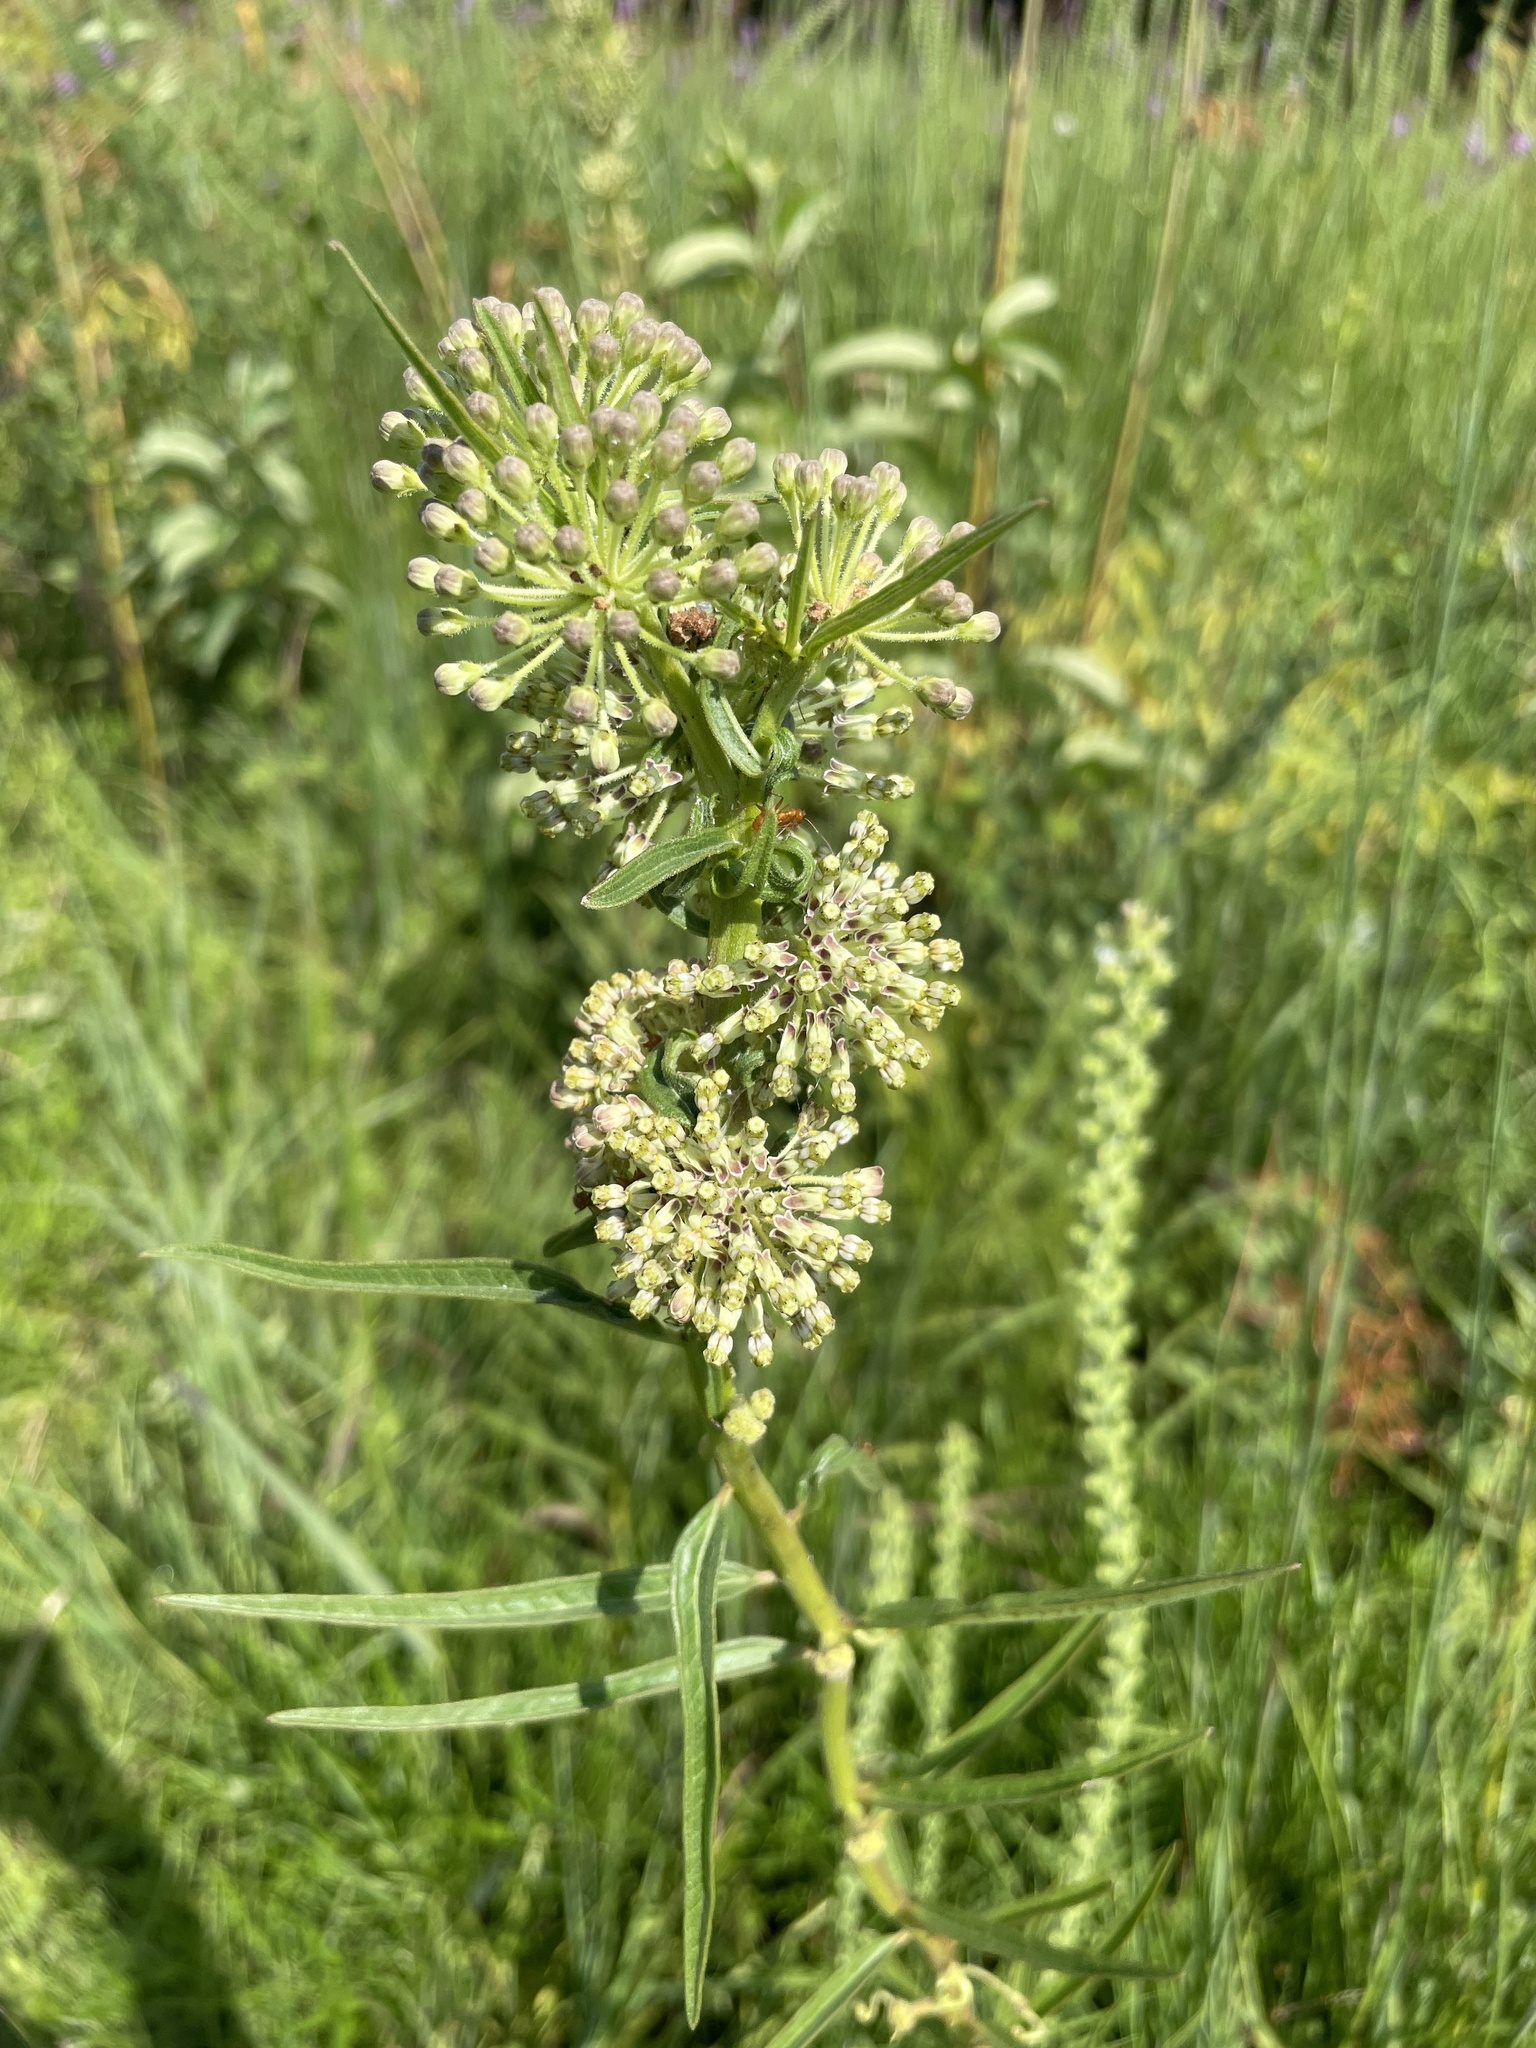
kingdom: Plantae
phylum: Tracheophyta
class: Magnoliopsida
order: Gentianales
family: Apocynaceae
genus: Asclepias
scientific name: Asclepias hirtella
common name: Prairie milkweed
